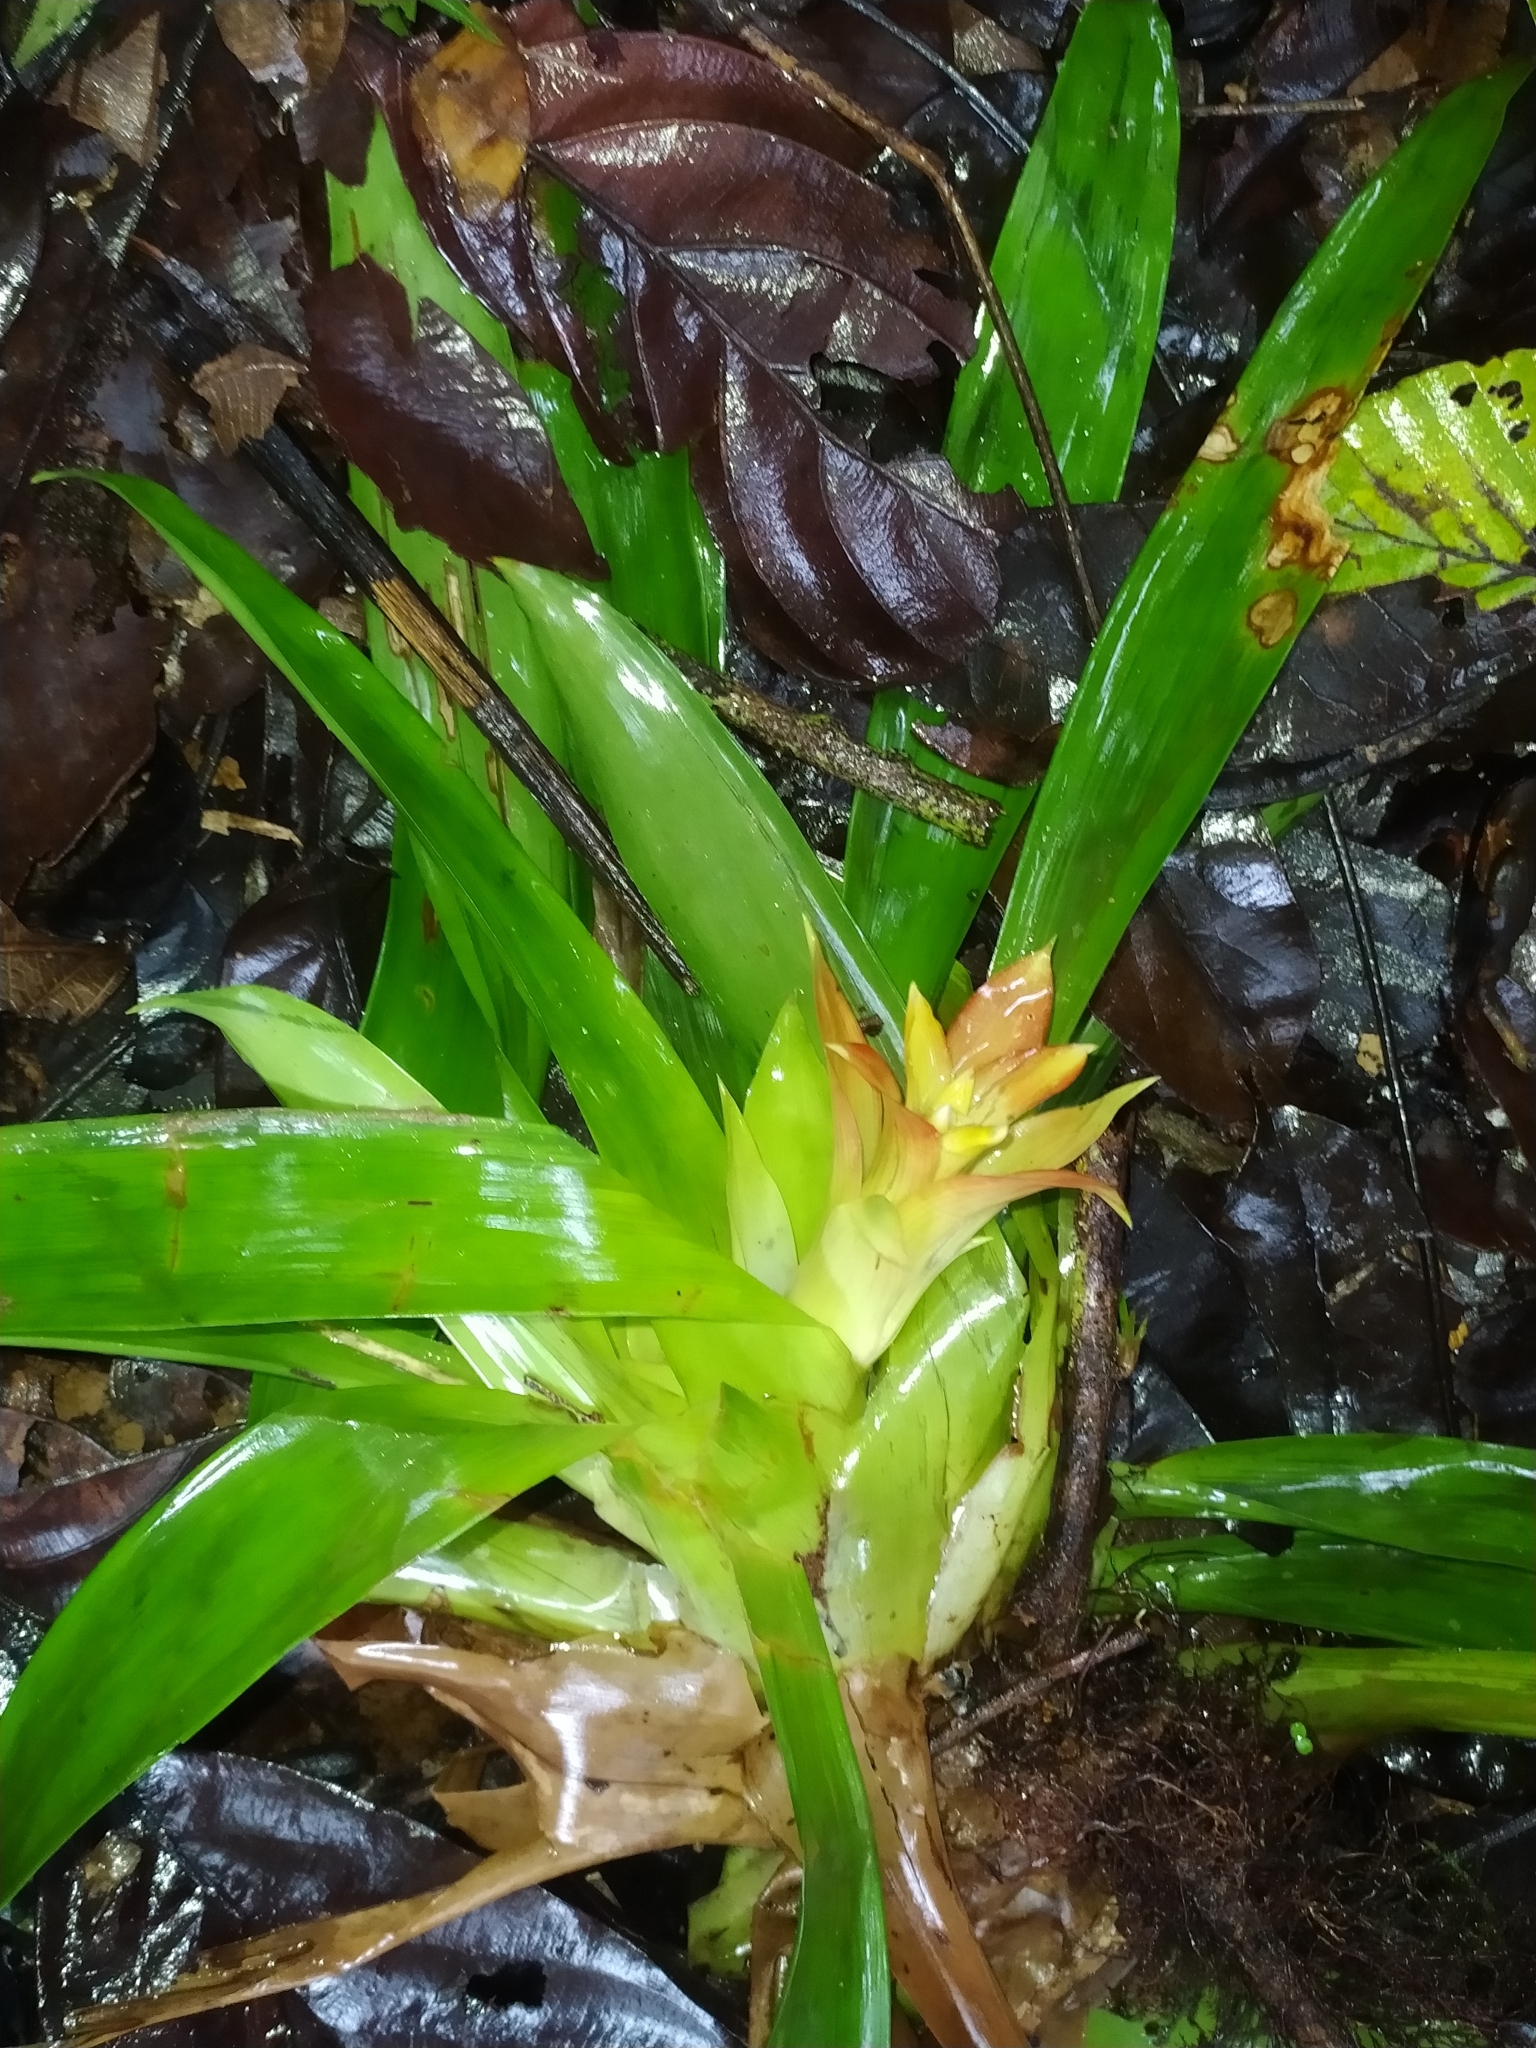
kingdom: Plantae
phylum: Tracheophyta
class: Liliopsida
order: Poales
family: Bromeliaceae
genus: Guzmania
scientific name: Guzmania lingulata
